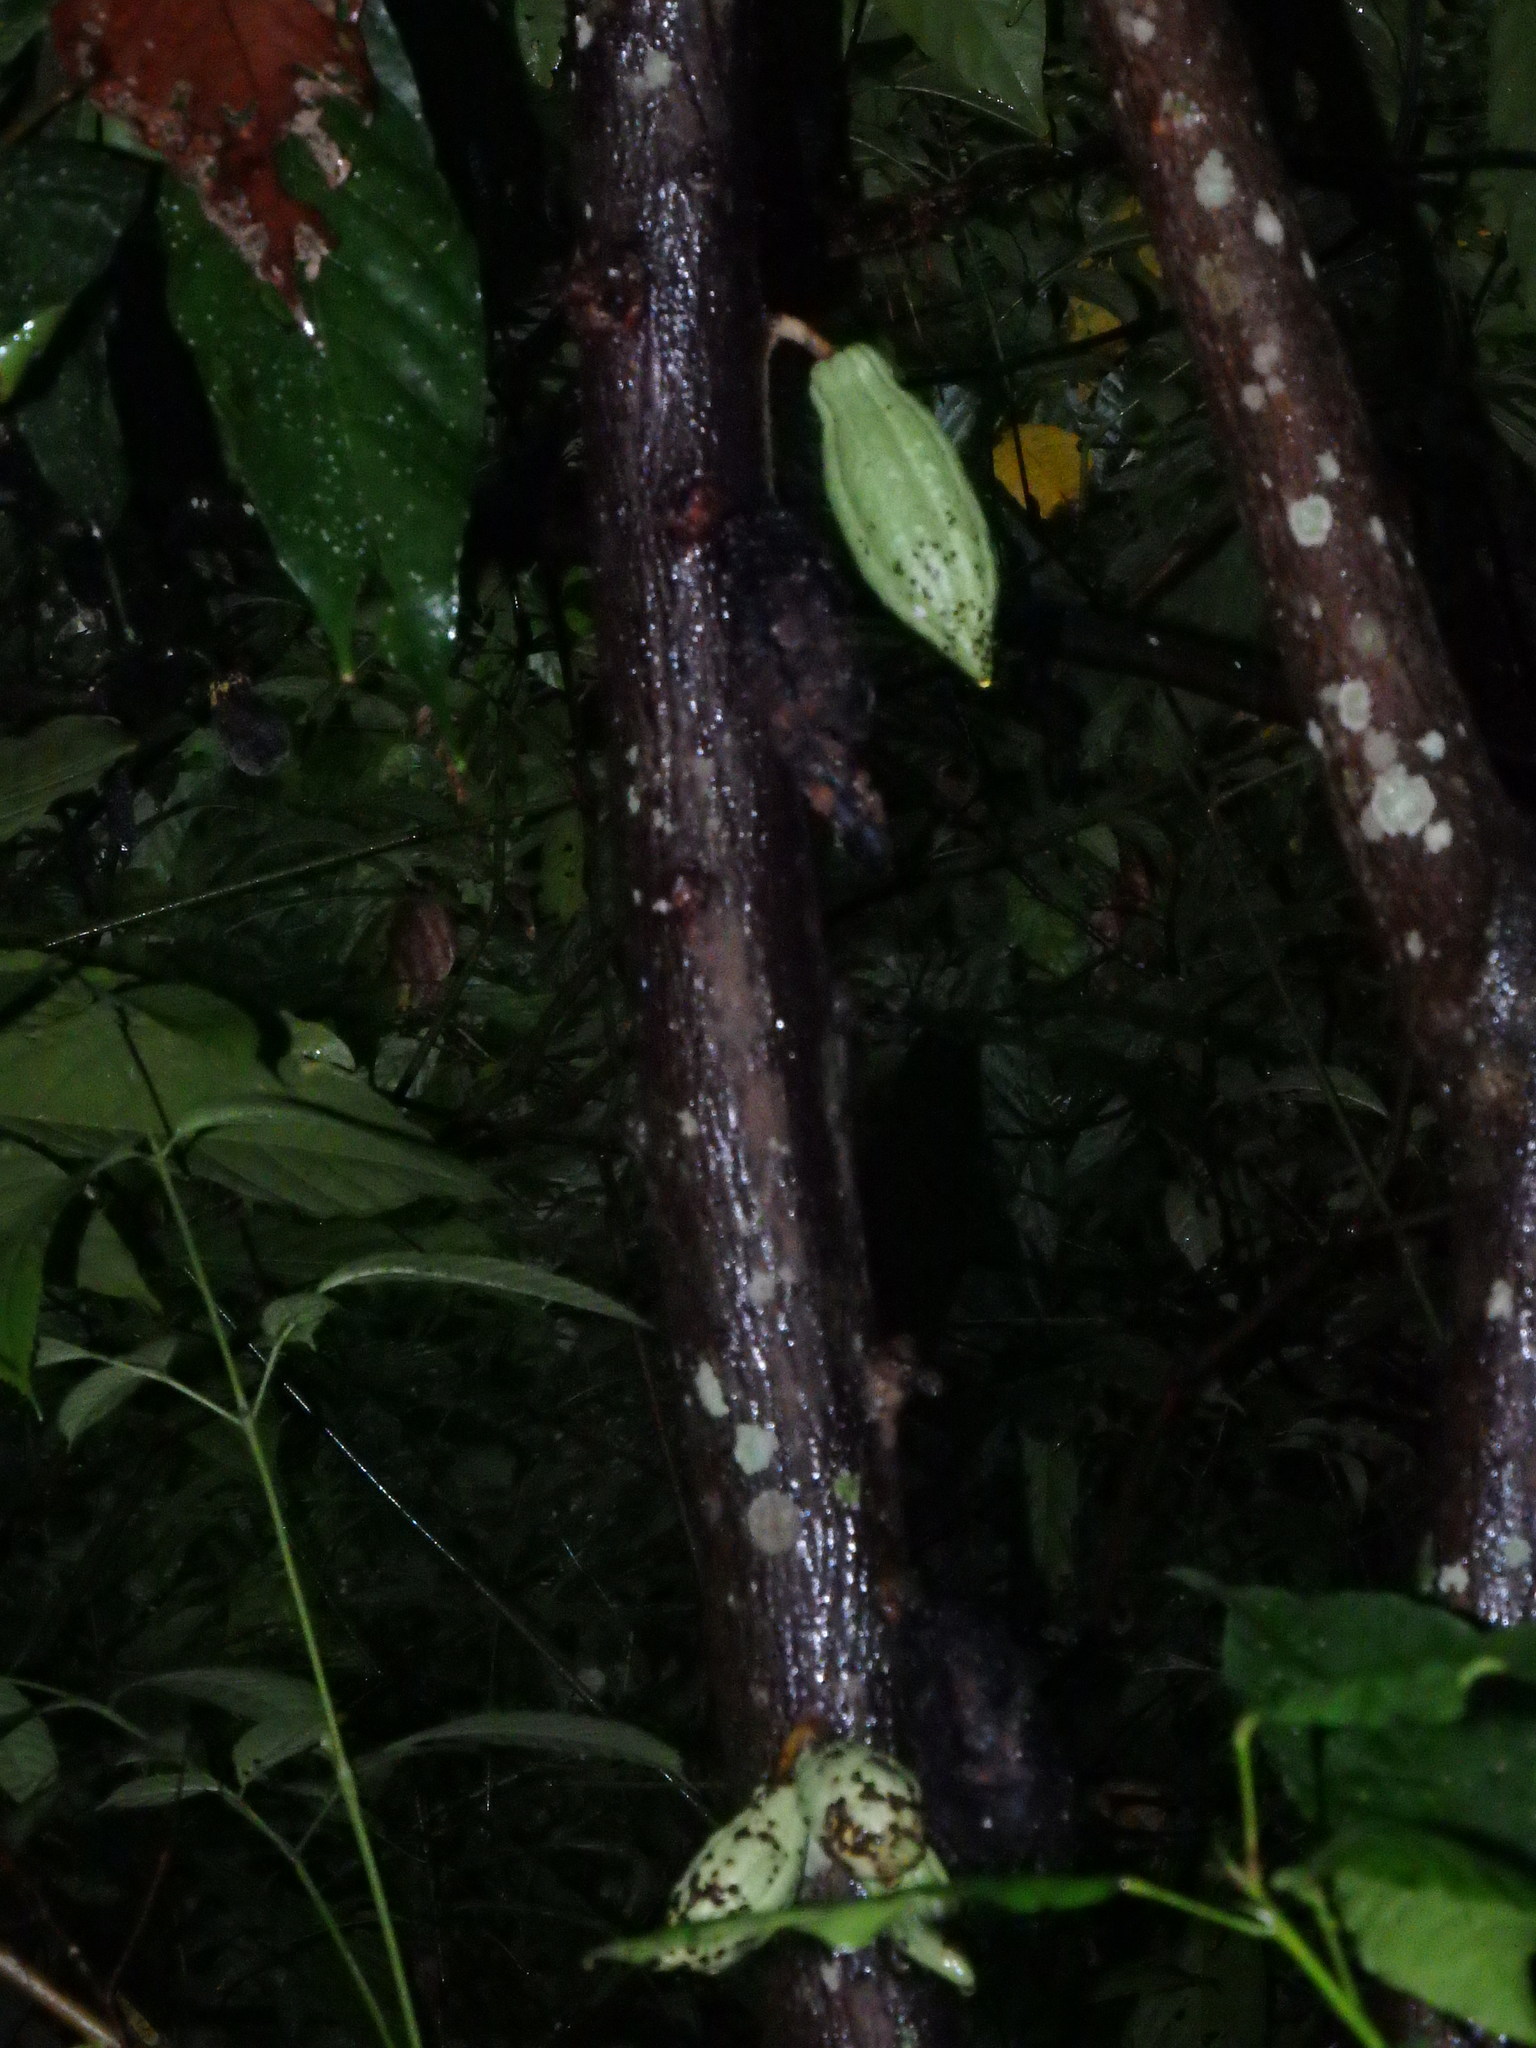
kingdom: Plantae
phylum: Tracheophyta
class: Magnoliopsida
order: Malvales
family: Malvaceae
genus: Theobroma
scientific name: Theobroma cacao
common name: Cocoa
